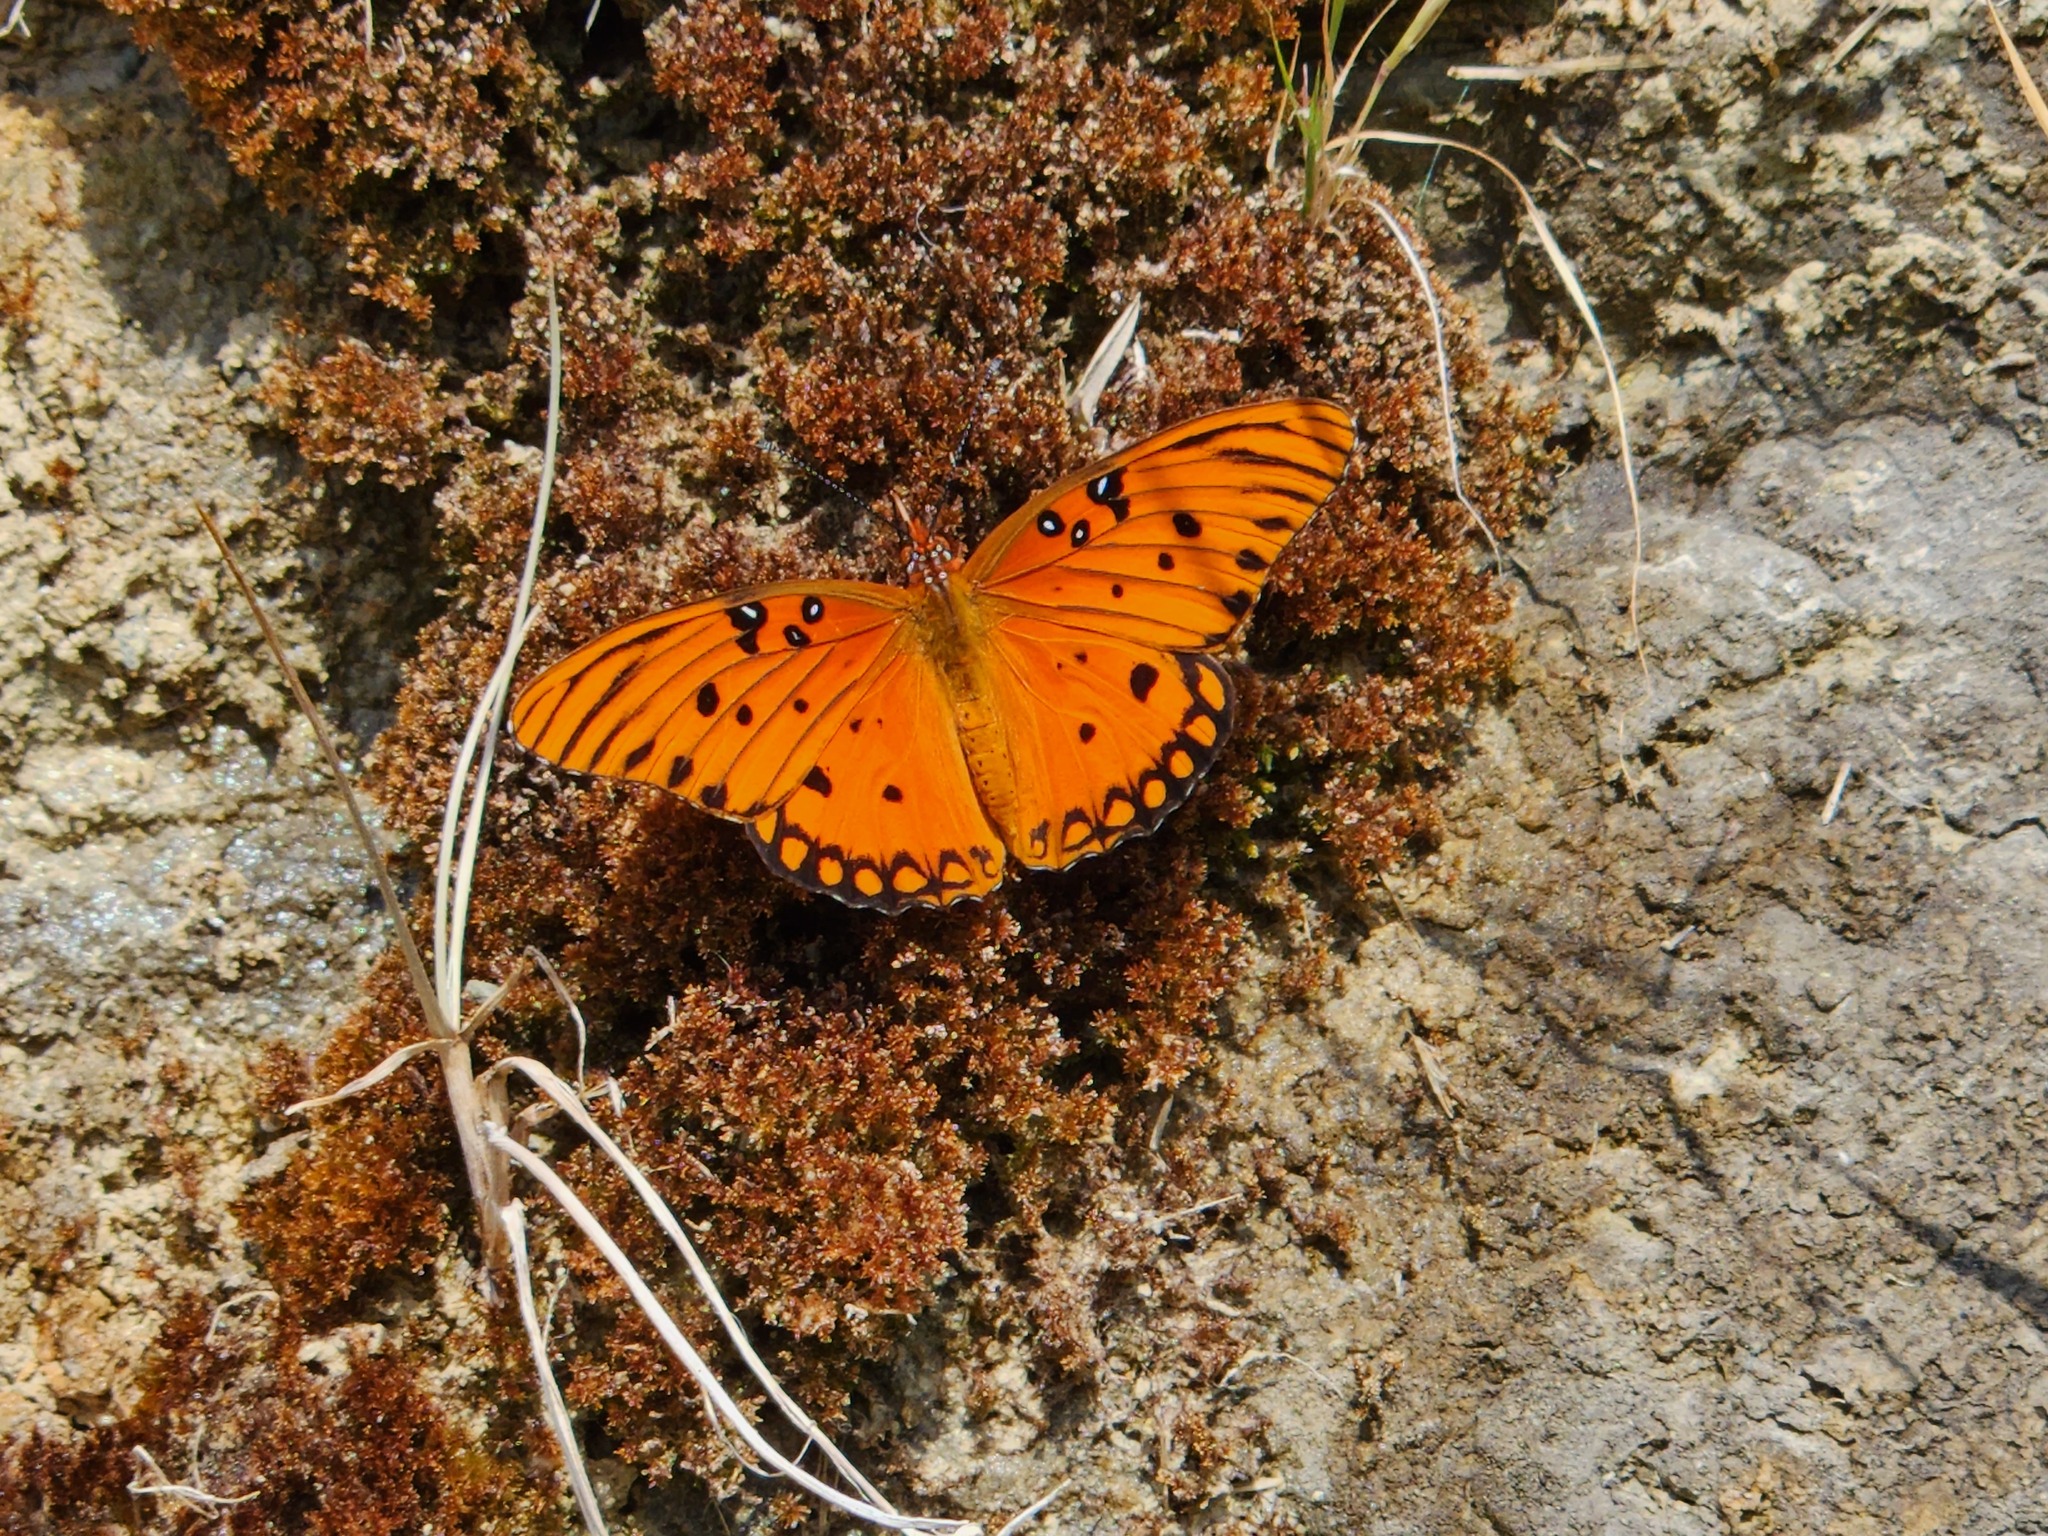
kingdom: Animalia
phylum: Arthropoda
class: Insecta
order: Lepidoptera
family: Nymphalidae
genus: Dione
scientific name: Dione vanillae
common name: Gulf fritillary
